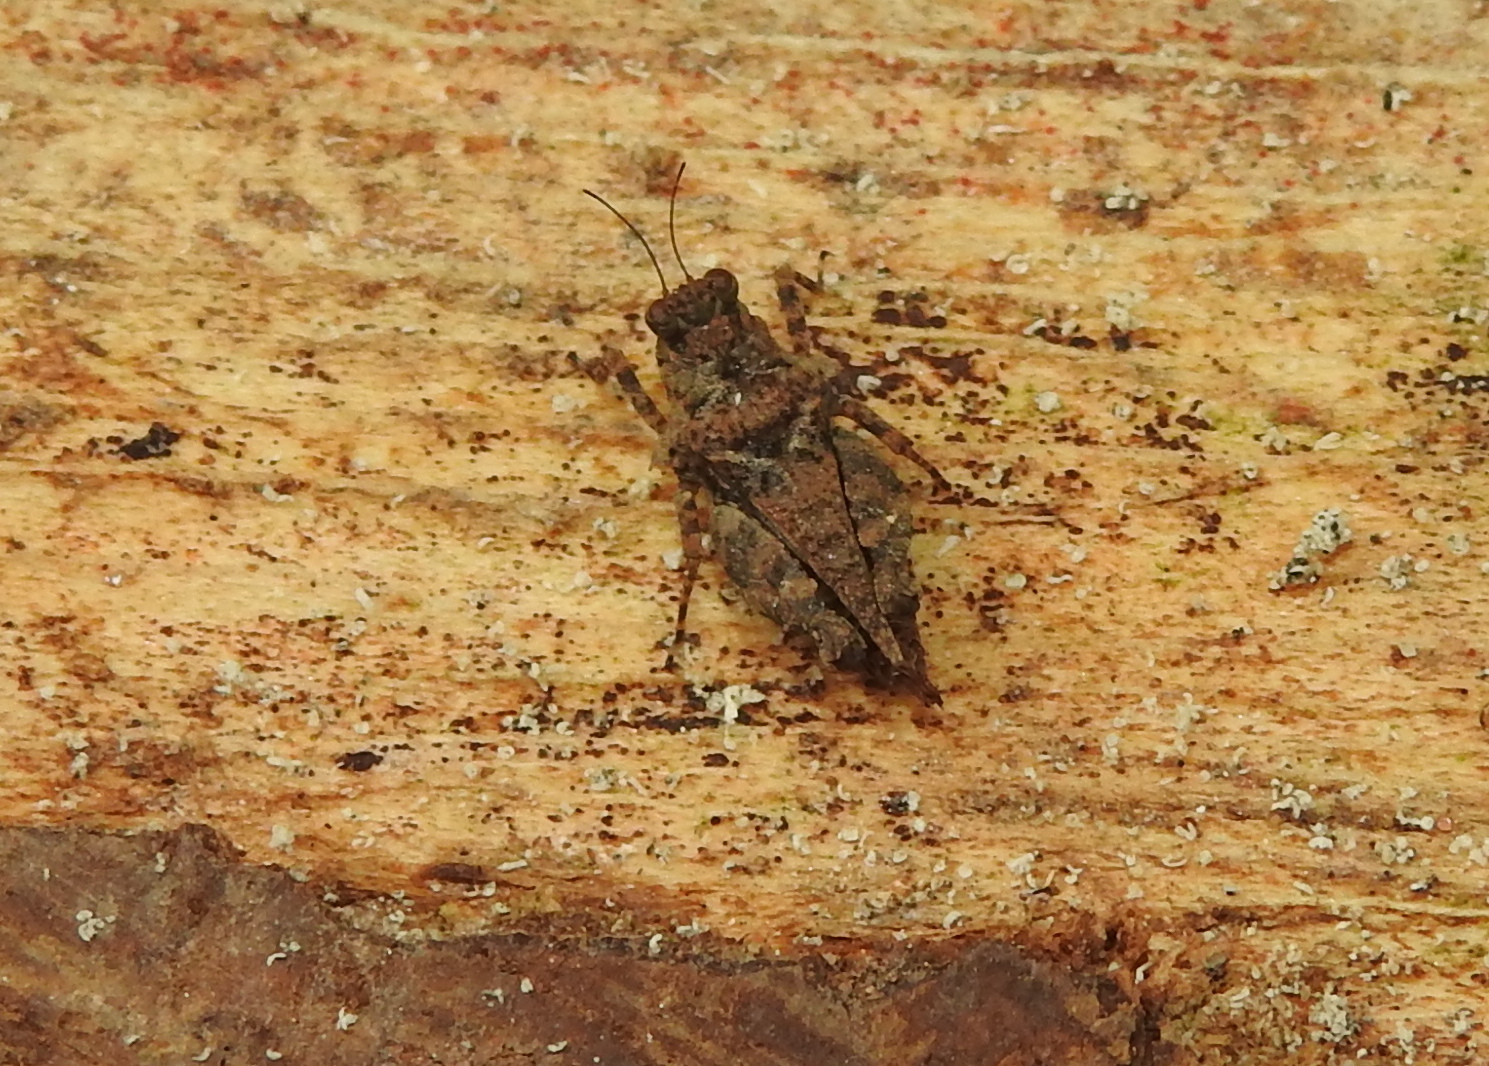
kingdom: Animalia
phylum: Arthropoda
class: Insecta
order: Orthoptera
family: Tetrigidae
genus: Thoradonta
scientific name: Thoradonta nodulosa
